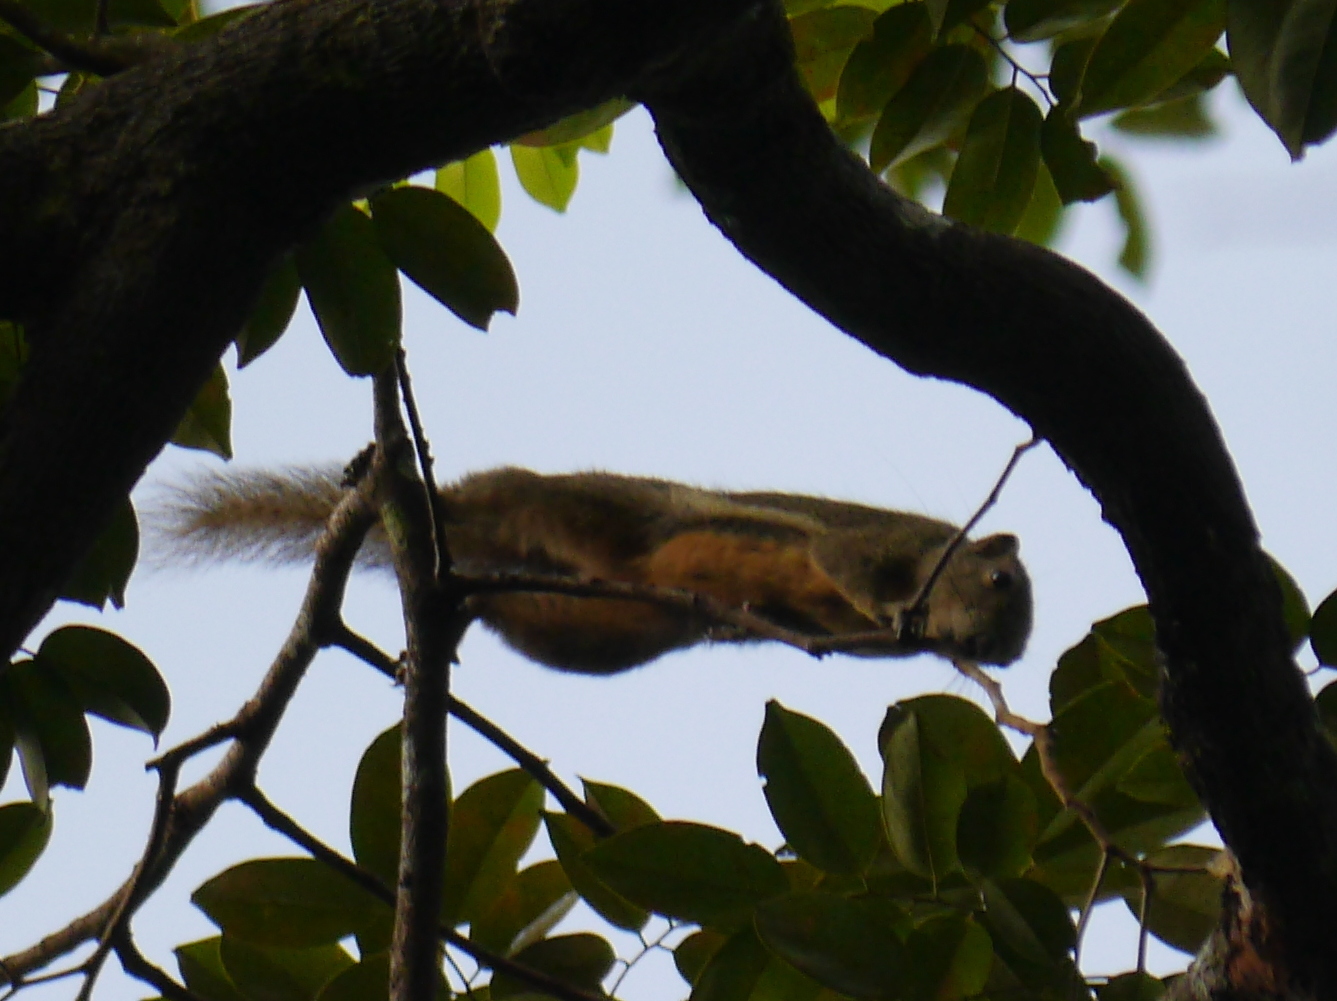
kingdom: Animalia
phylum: Chordata
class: Mammalia
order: Rodentia
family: Sciuridae
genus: Callosciurus
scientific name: Callosciurus notatus
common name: Plantain squirrel
